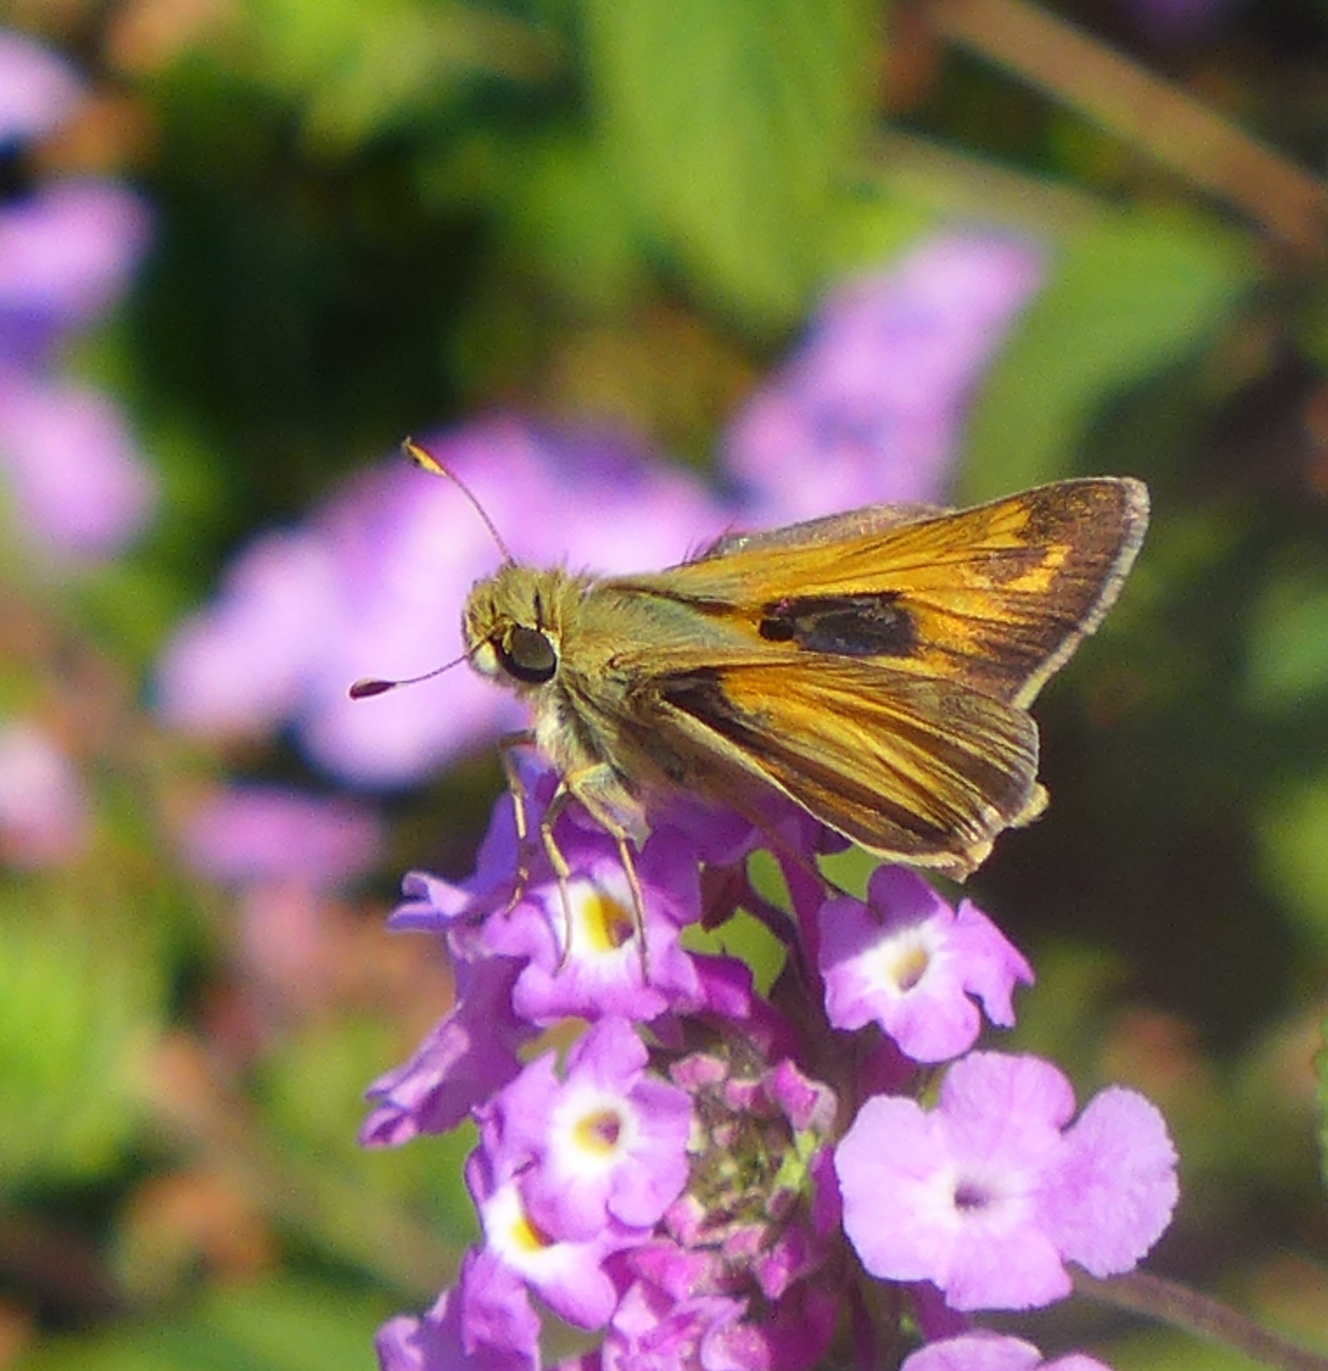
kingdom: Animalia
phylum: Arthropoda
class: Insecta
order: Lepidoptera
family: Hesperiidae
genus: Atalopedes
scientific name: Atalopedes campestris
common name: Sachem
